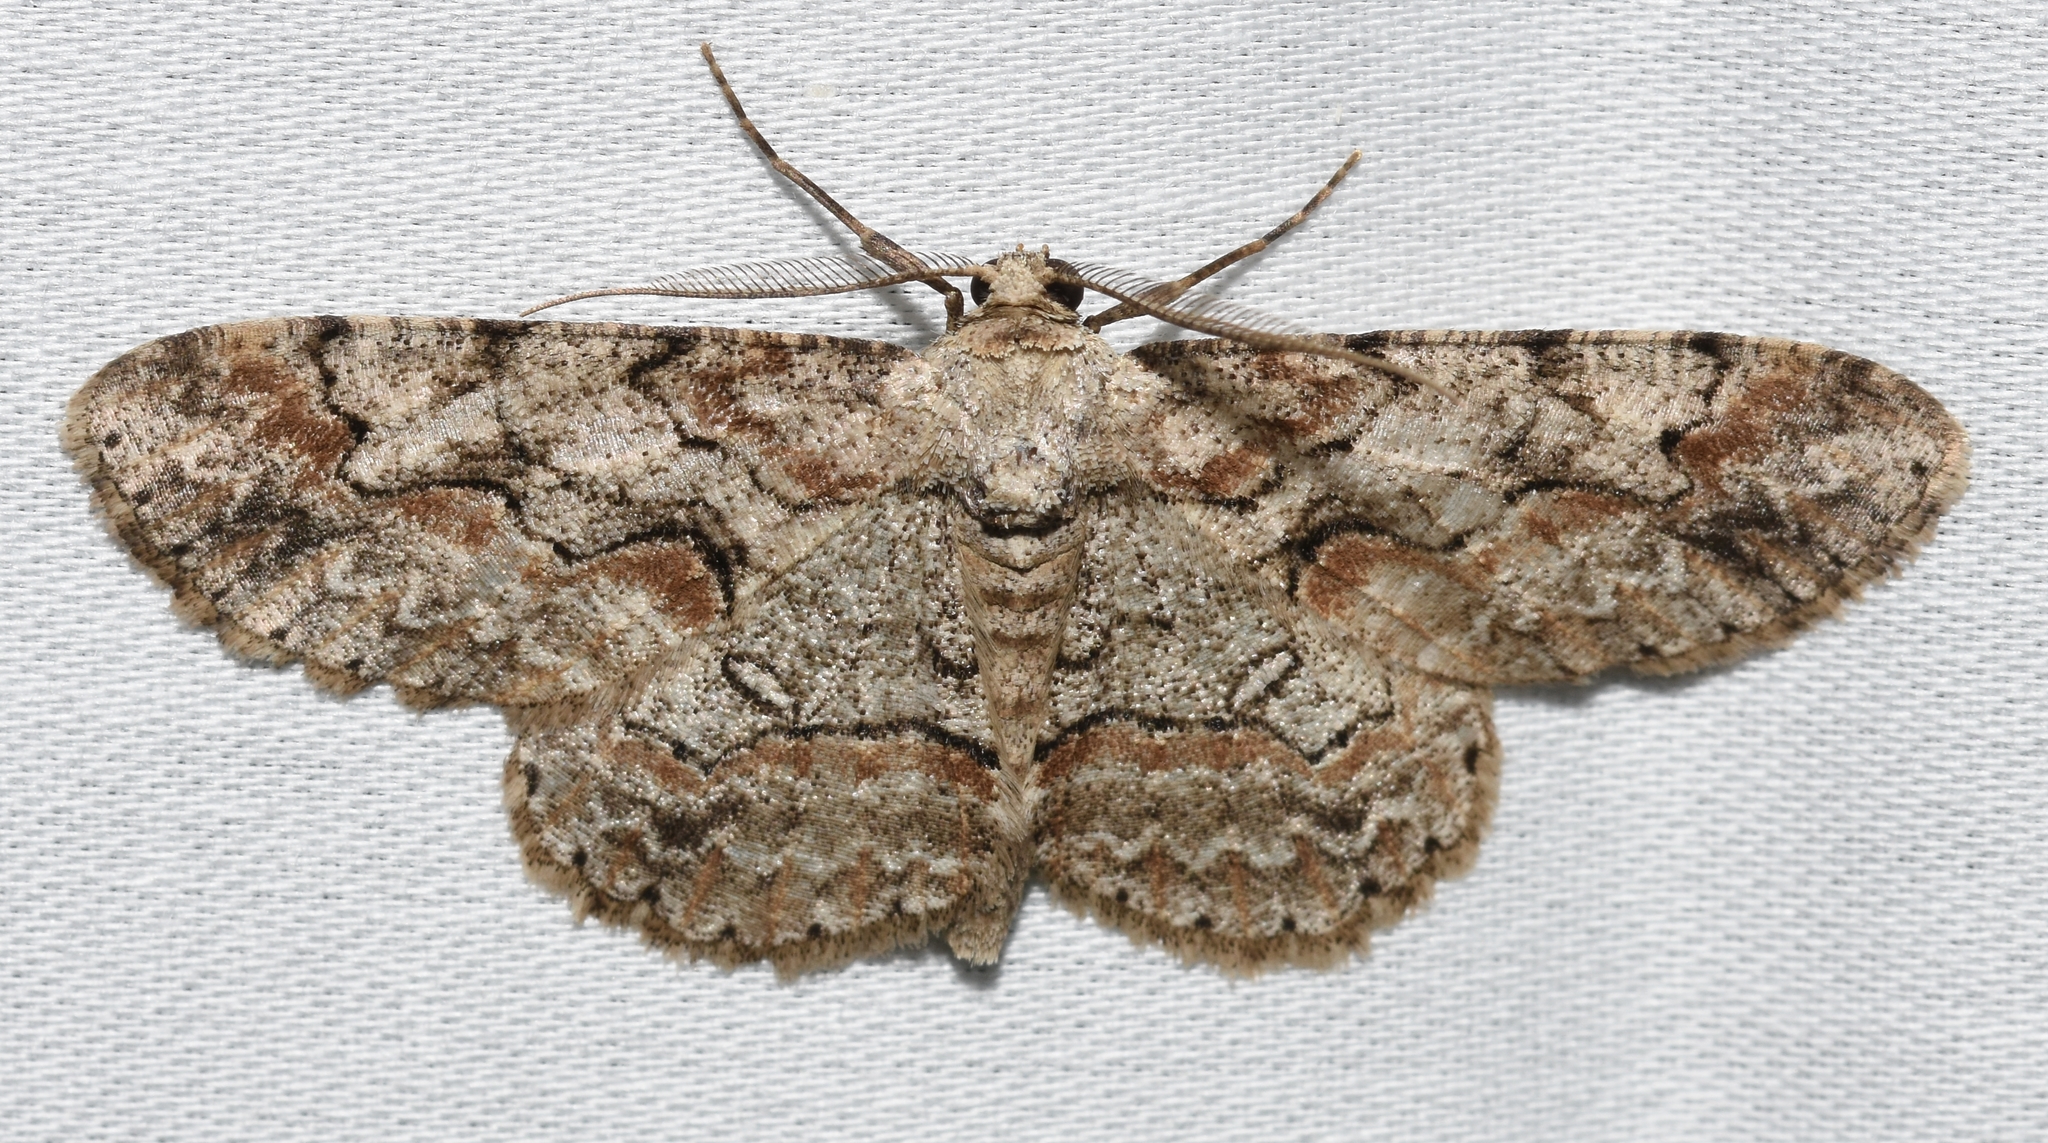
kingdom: Animalia
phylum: Arthropoda
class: Insecta
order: Lepidoptera
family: Geometridae
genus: Iridopsis
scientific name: Iridopsis defectaria
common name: Brown-shaded gray
